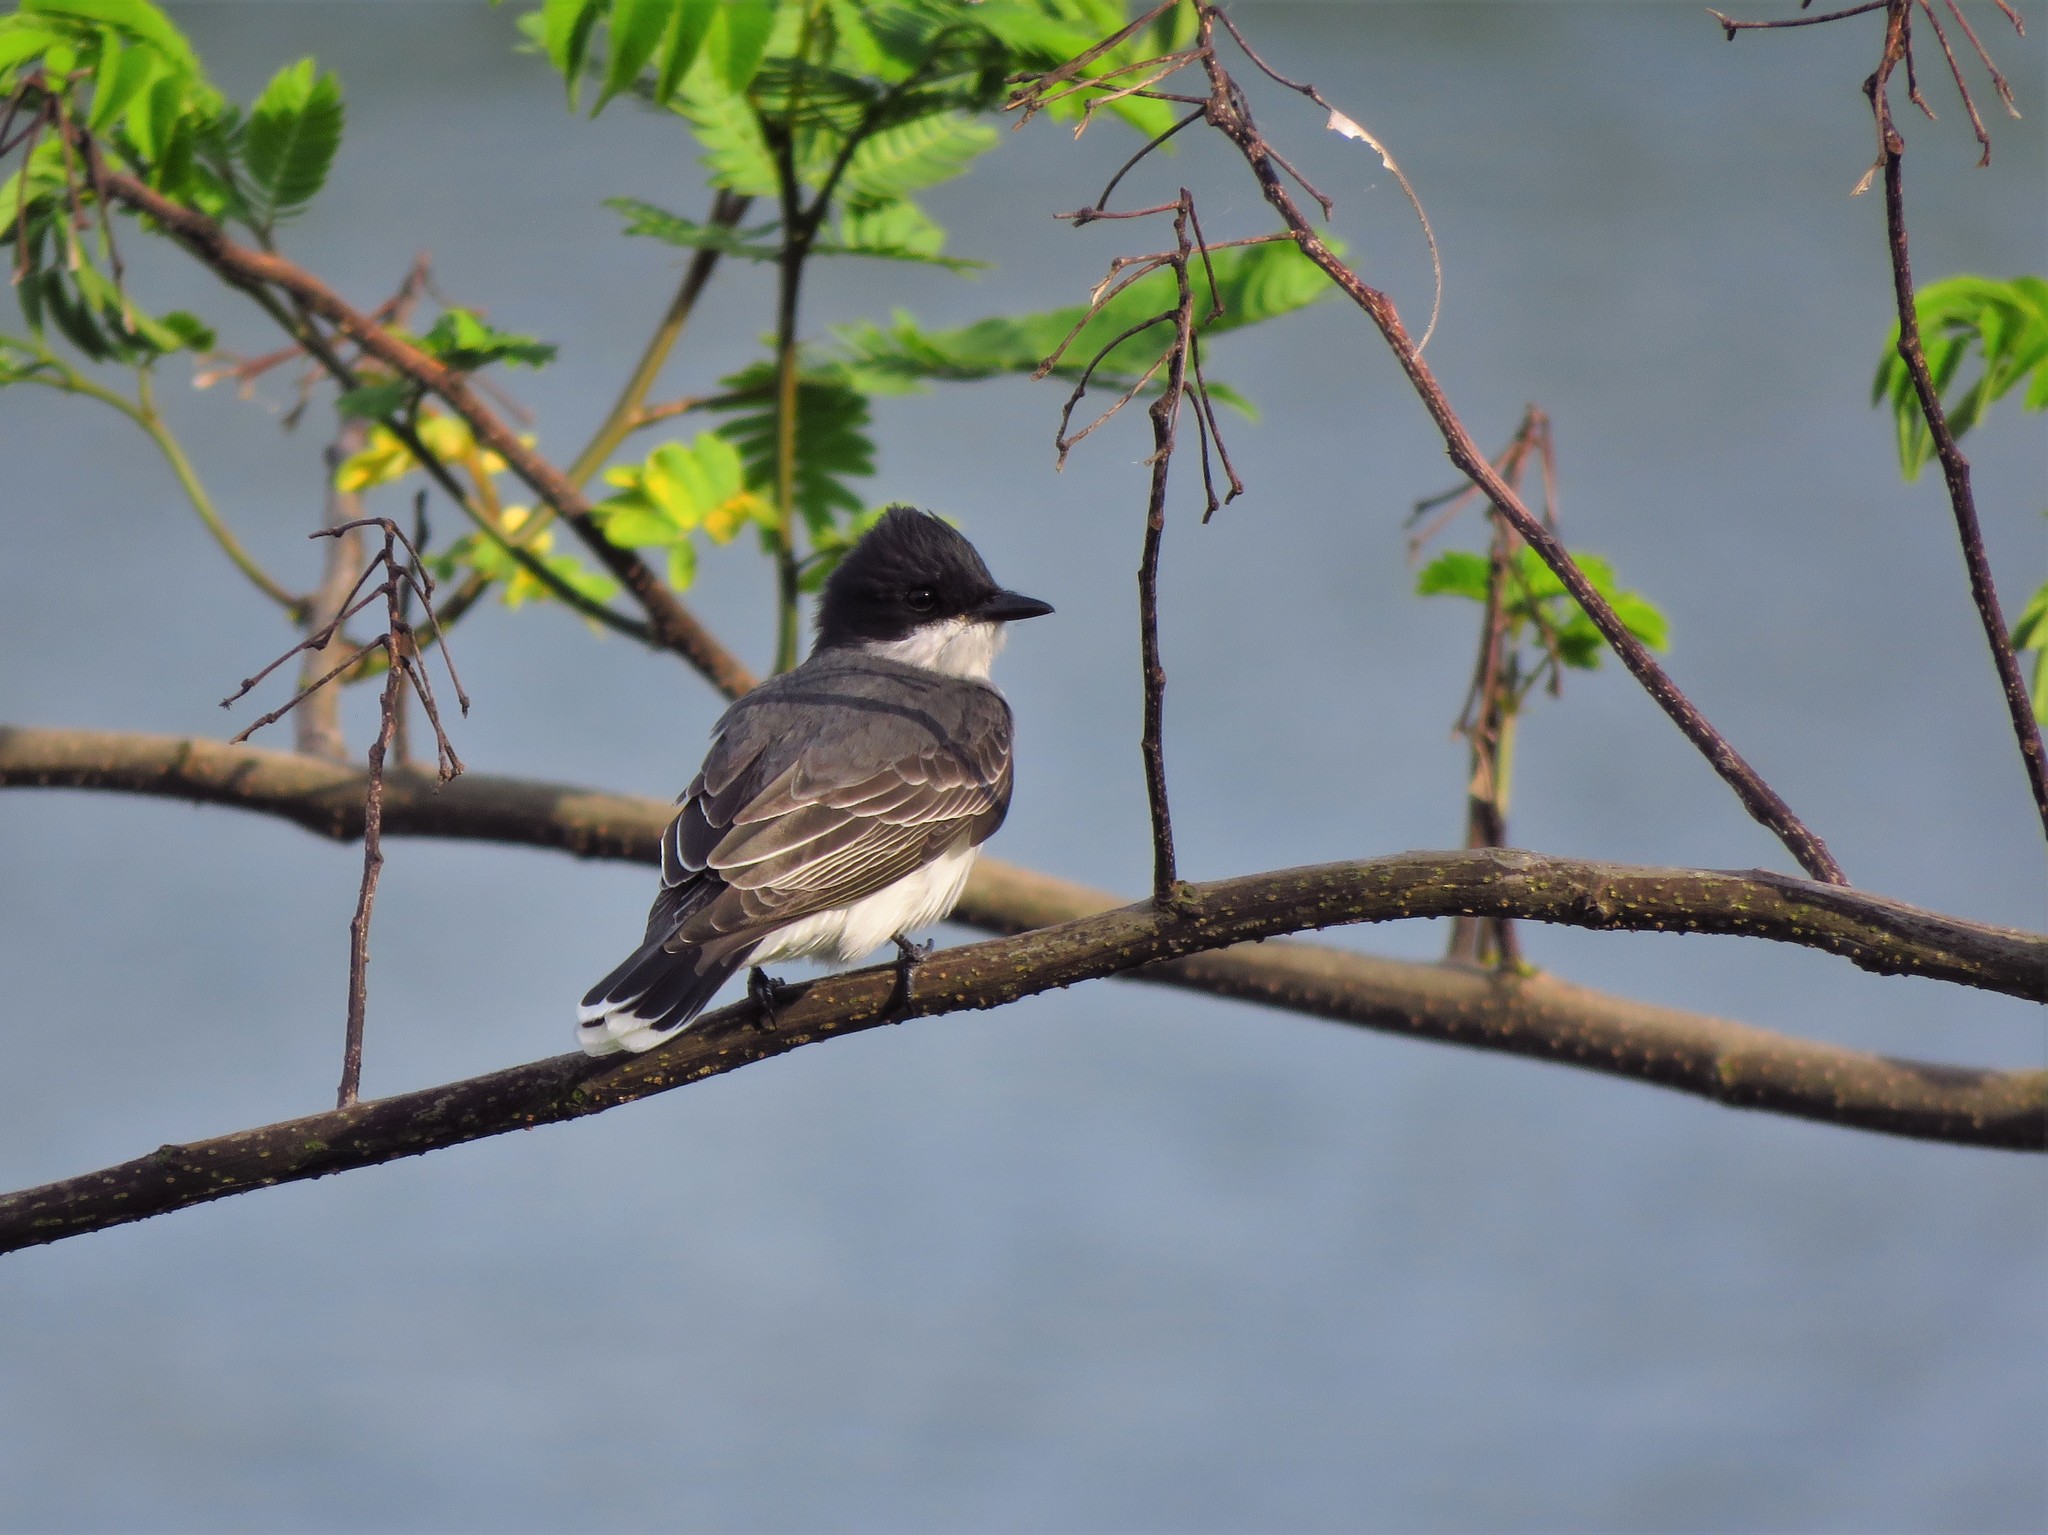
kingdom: Animalia
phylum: Chordata
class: Aves
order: Passeriformes
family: Tyrannidae
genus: Tyrannus
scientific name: Tyrannus tyrannus
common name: Eastern kingbird
